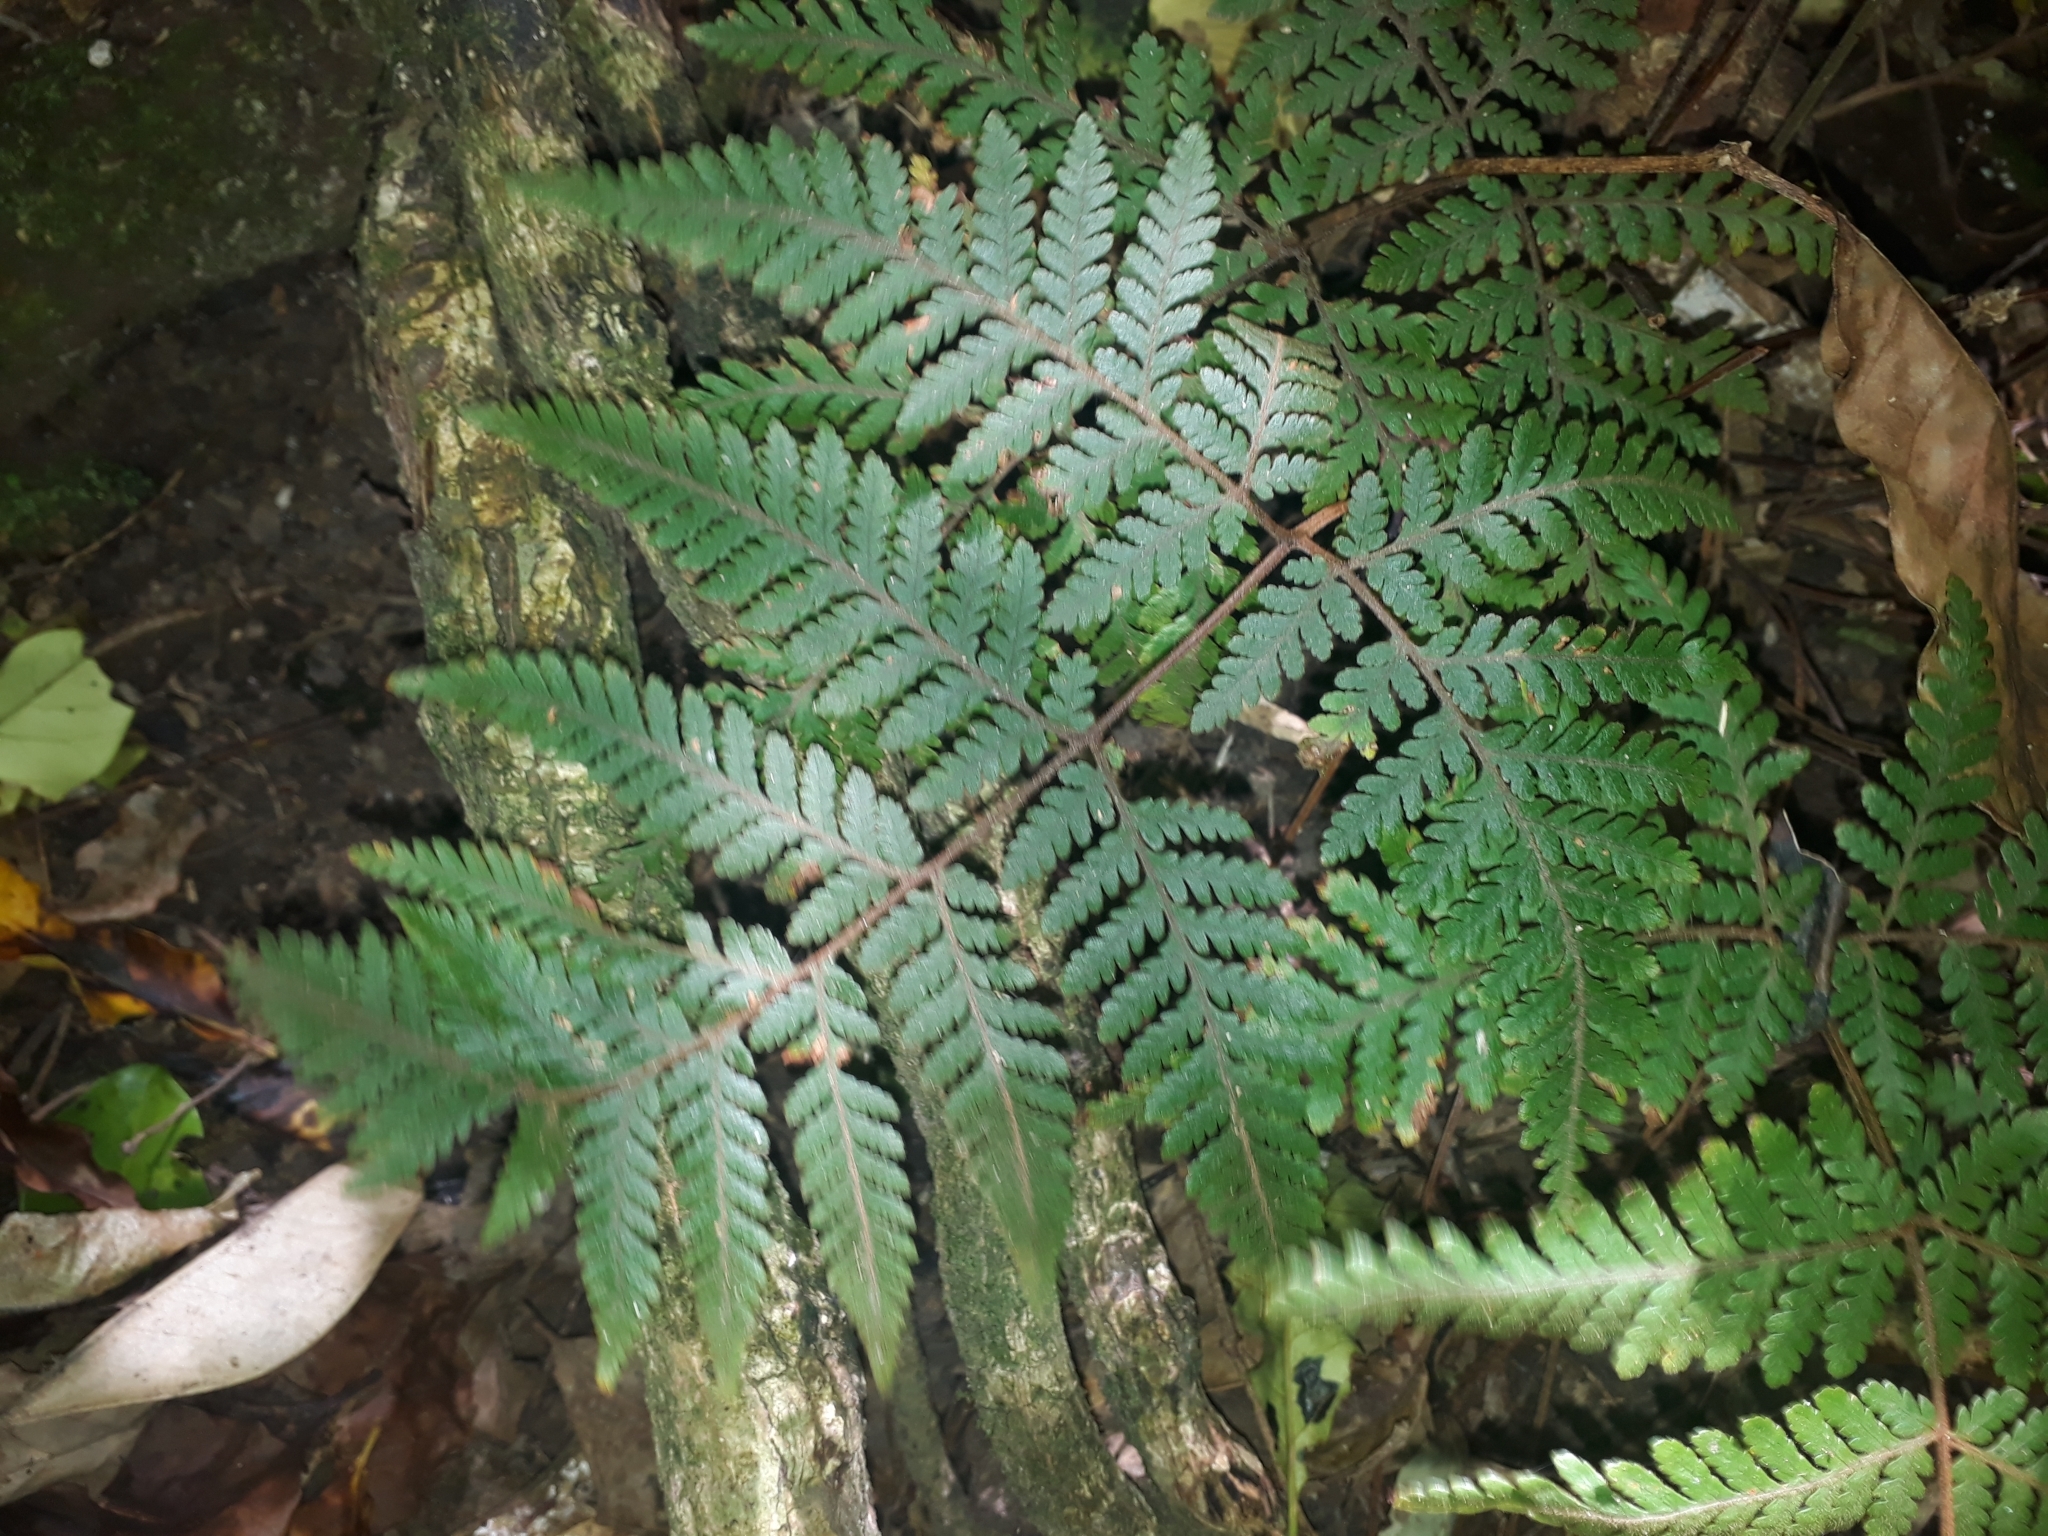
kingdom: Plantae
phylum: Tracheophyta
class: Polypodiopsida
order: Polypodiales
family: Dryopteridaceae
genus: Lastreopsis
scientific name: Lastreopsis velutina
